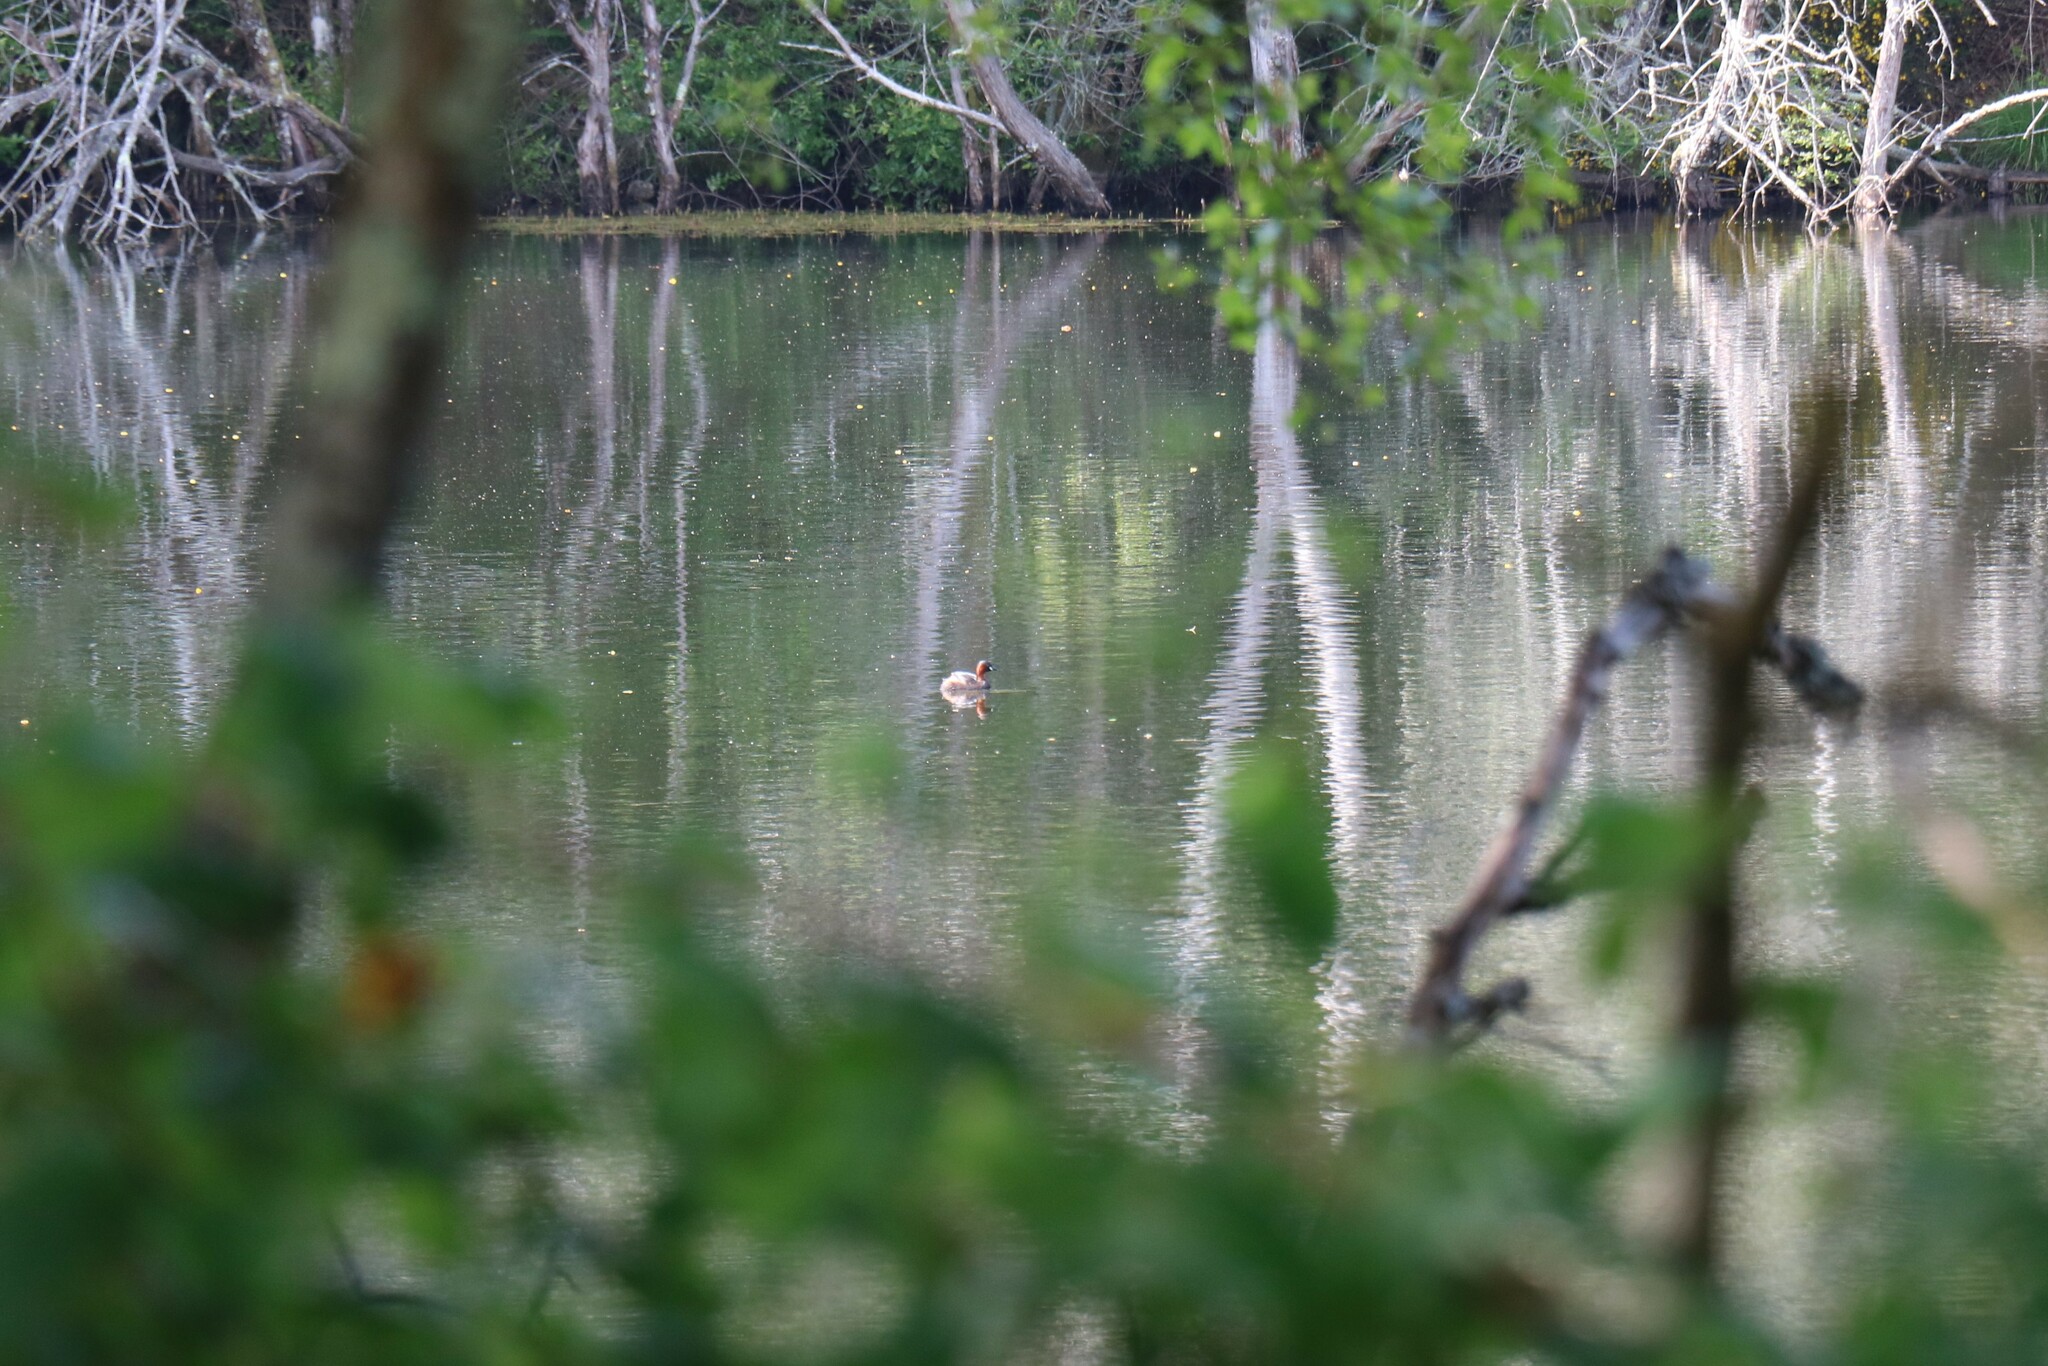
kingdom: Animalia
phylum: Chordata
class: Aves
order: Podicipediformes
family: Podicipedidae
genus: Tachybaptus
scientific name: Tachybaptus ruficollis
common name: Little grebe
